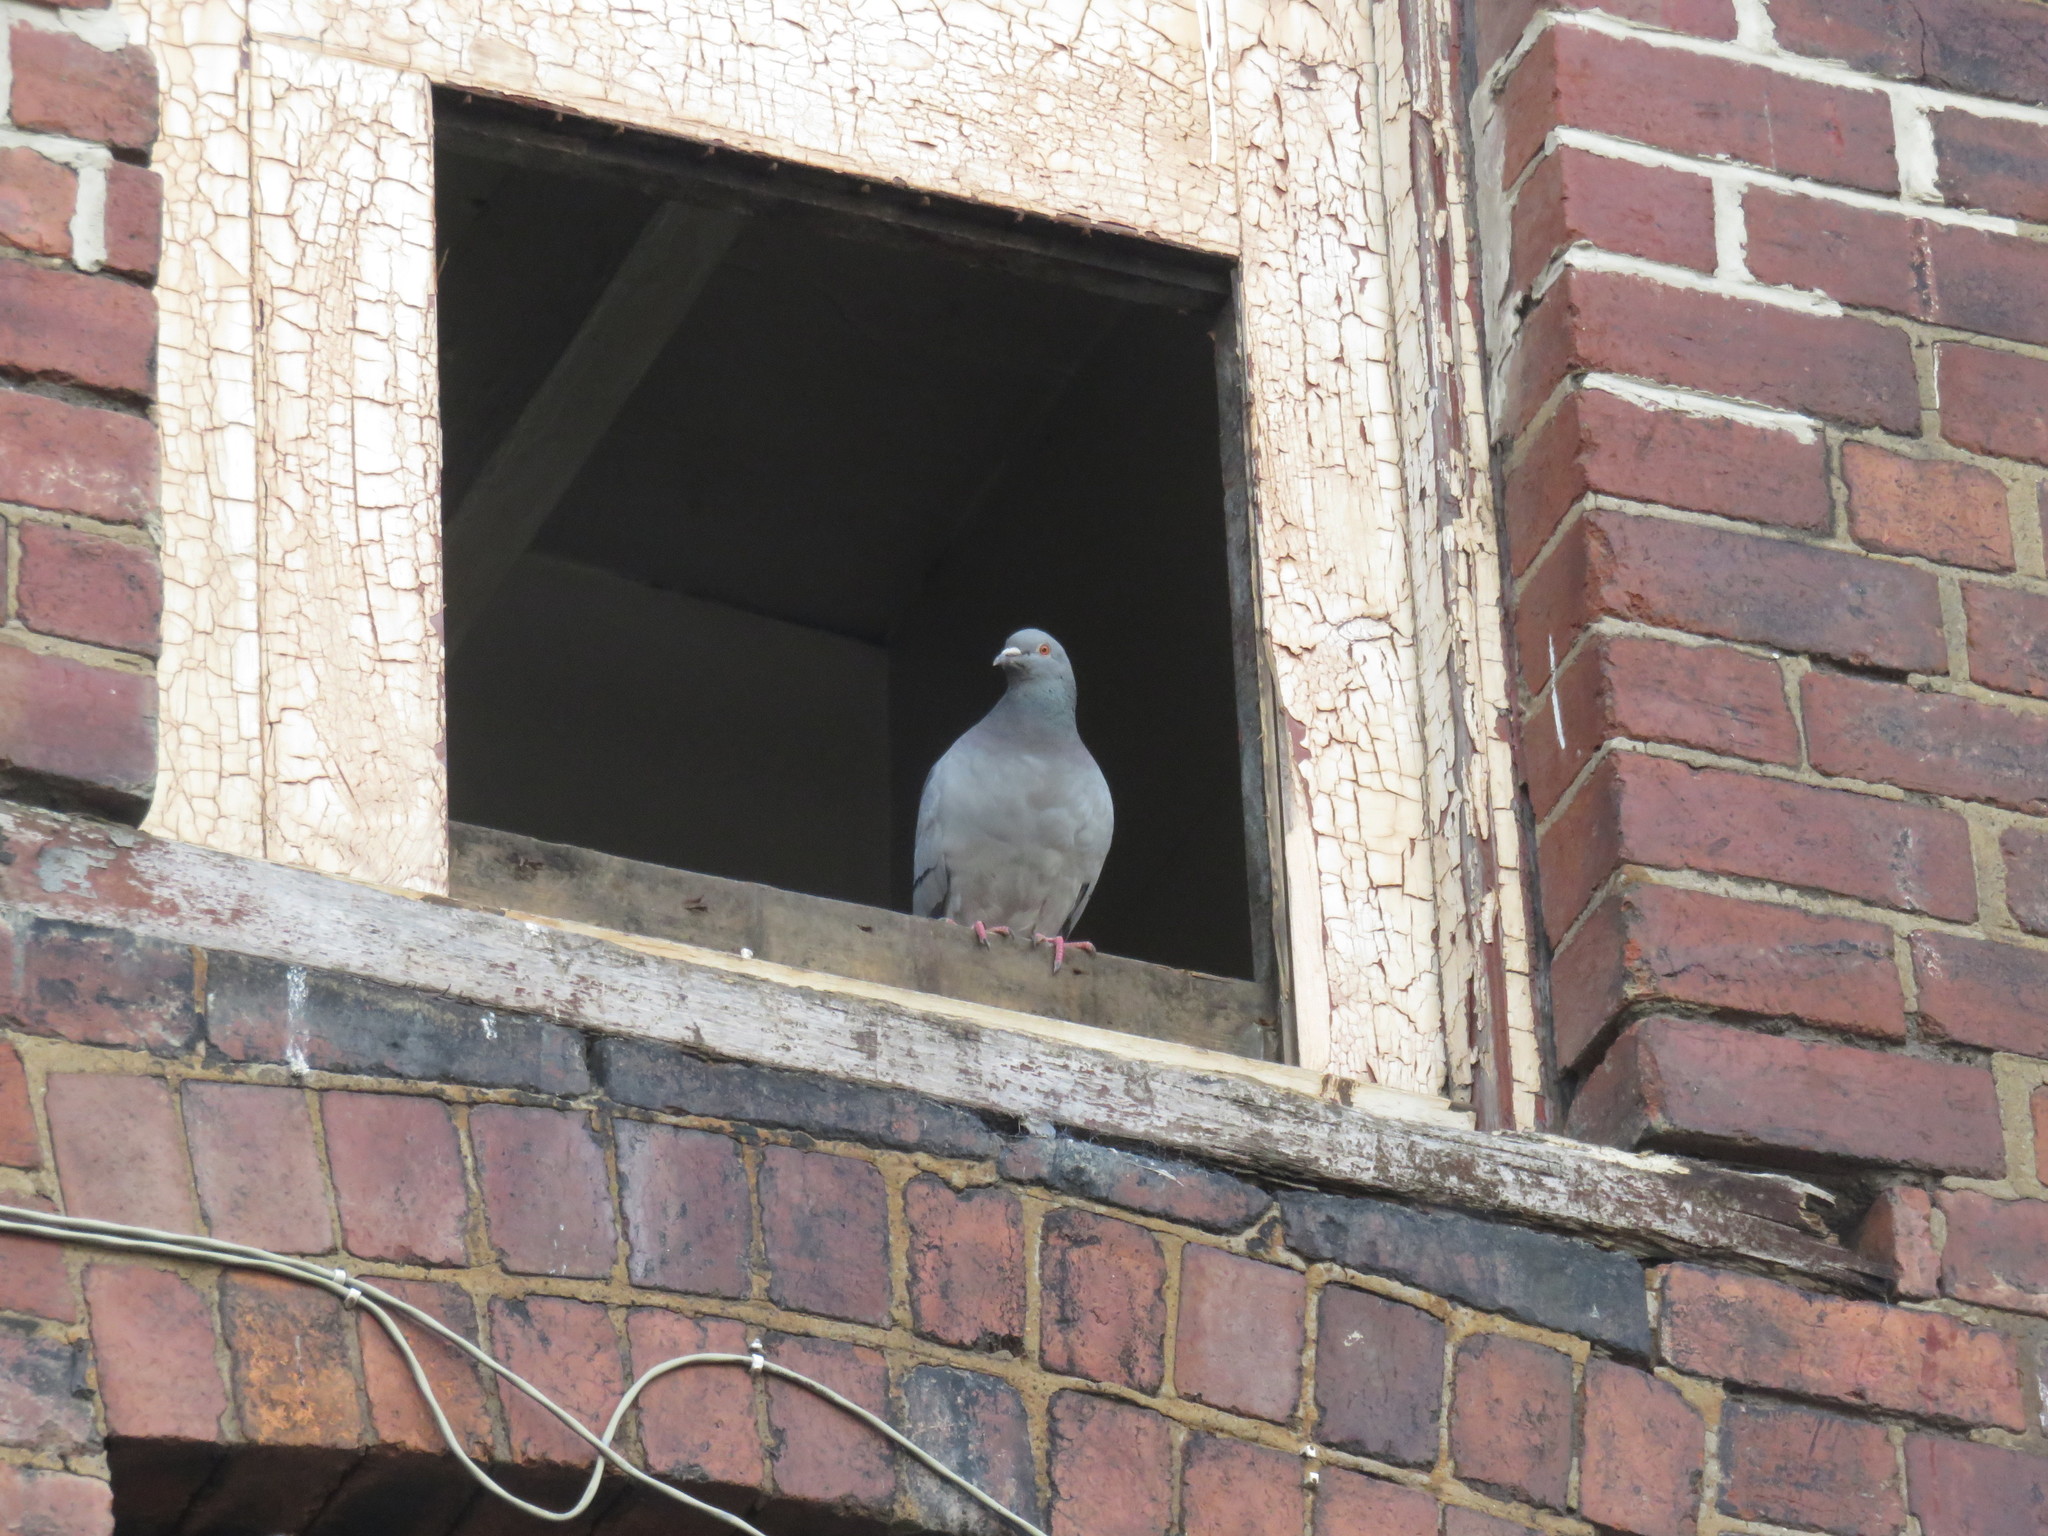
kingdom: Animalia
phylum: Chordata
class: Aves
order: Columbiformes
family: Columbidae
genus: Columba
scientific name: Columba livia
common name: Rock pigeon
